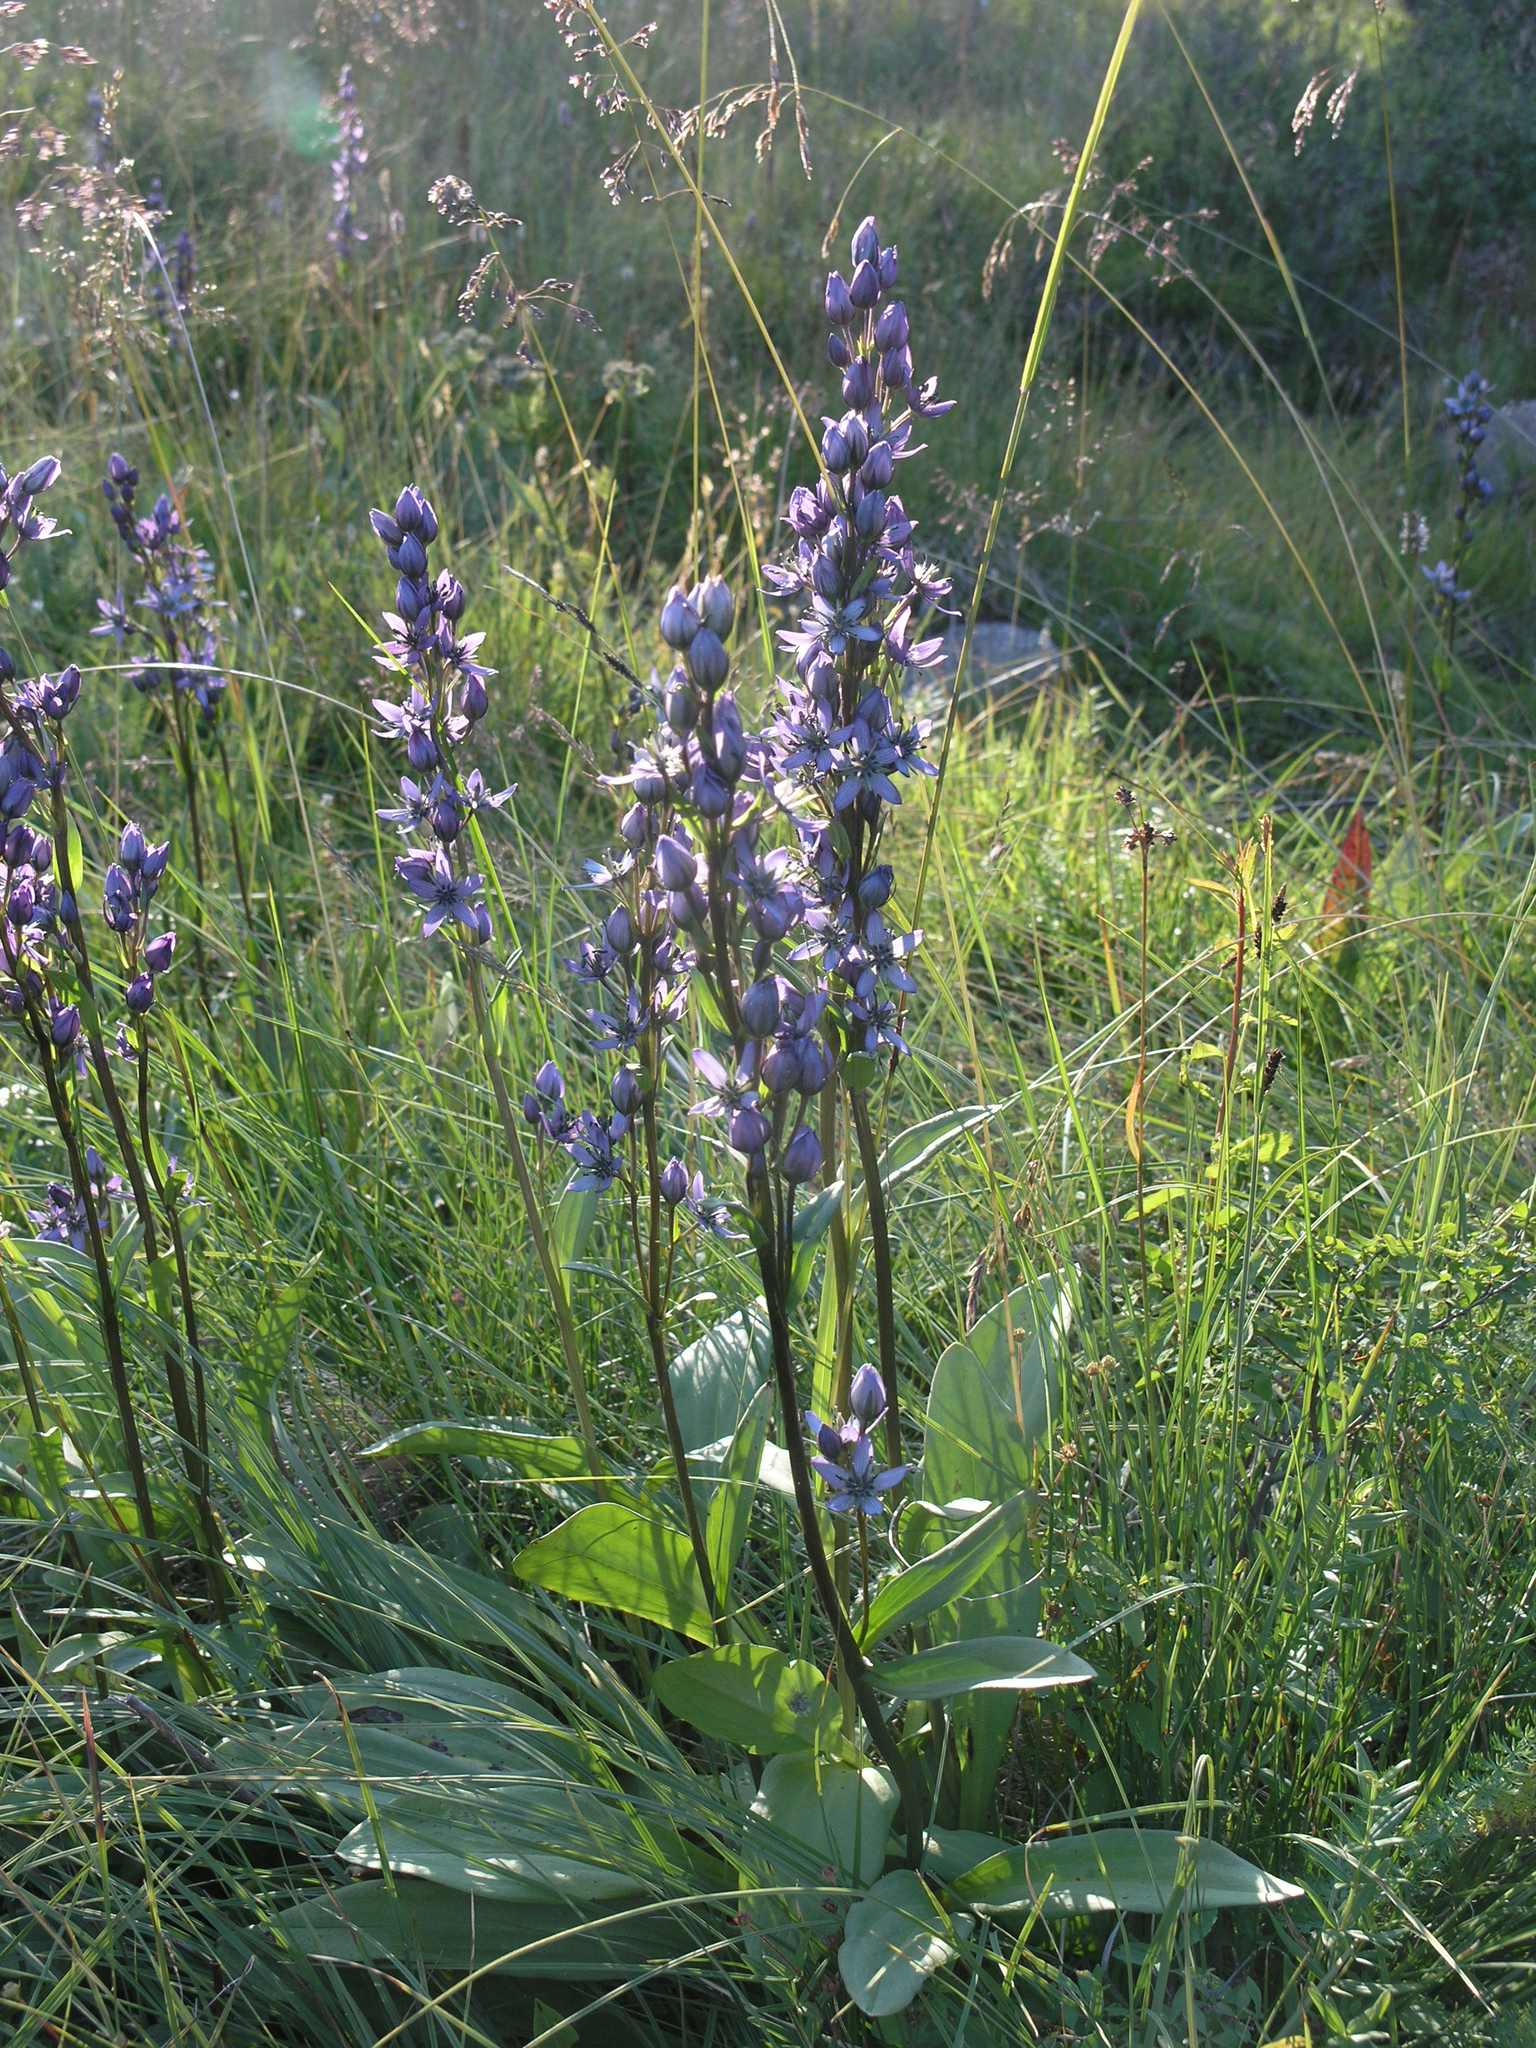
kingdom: Plantae
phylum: Tracheophyta
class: Magnoliopsida
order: Gentianales
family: Gentianaceae
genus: Swertia
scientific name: Swertia obtusa
